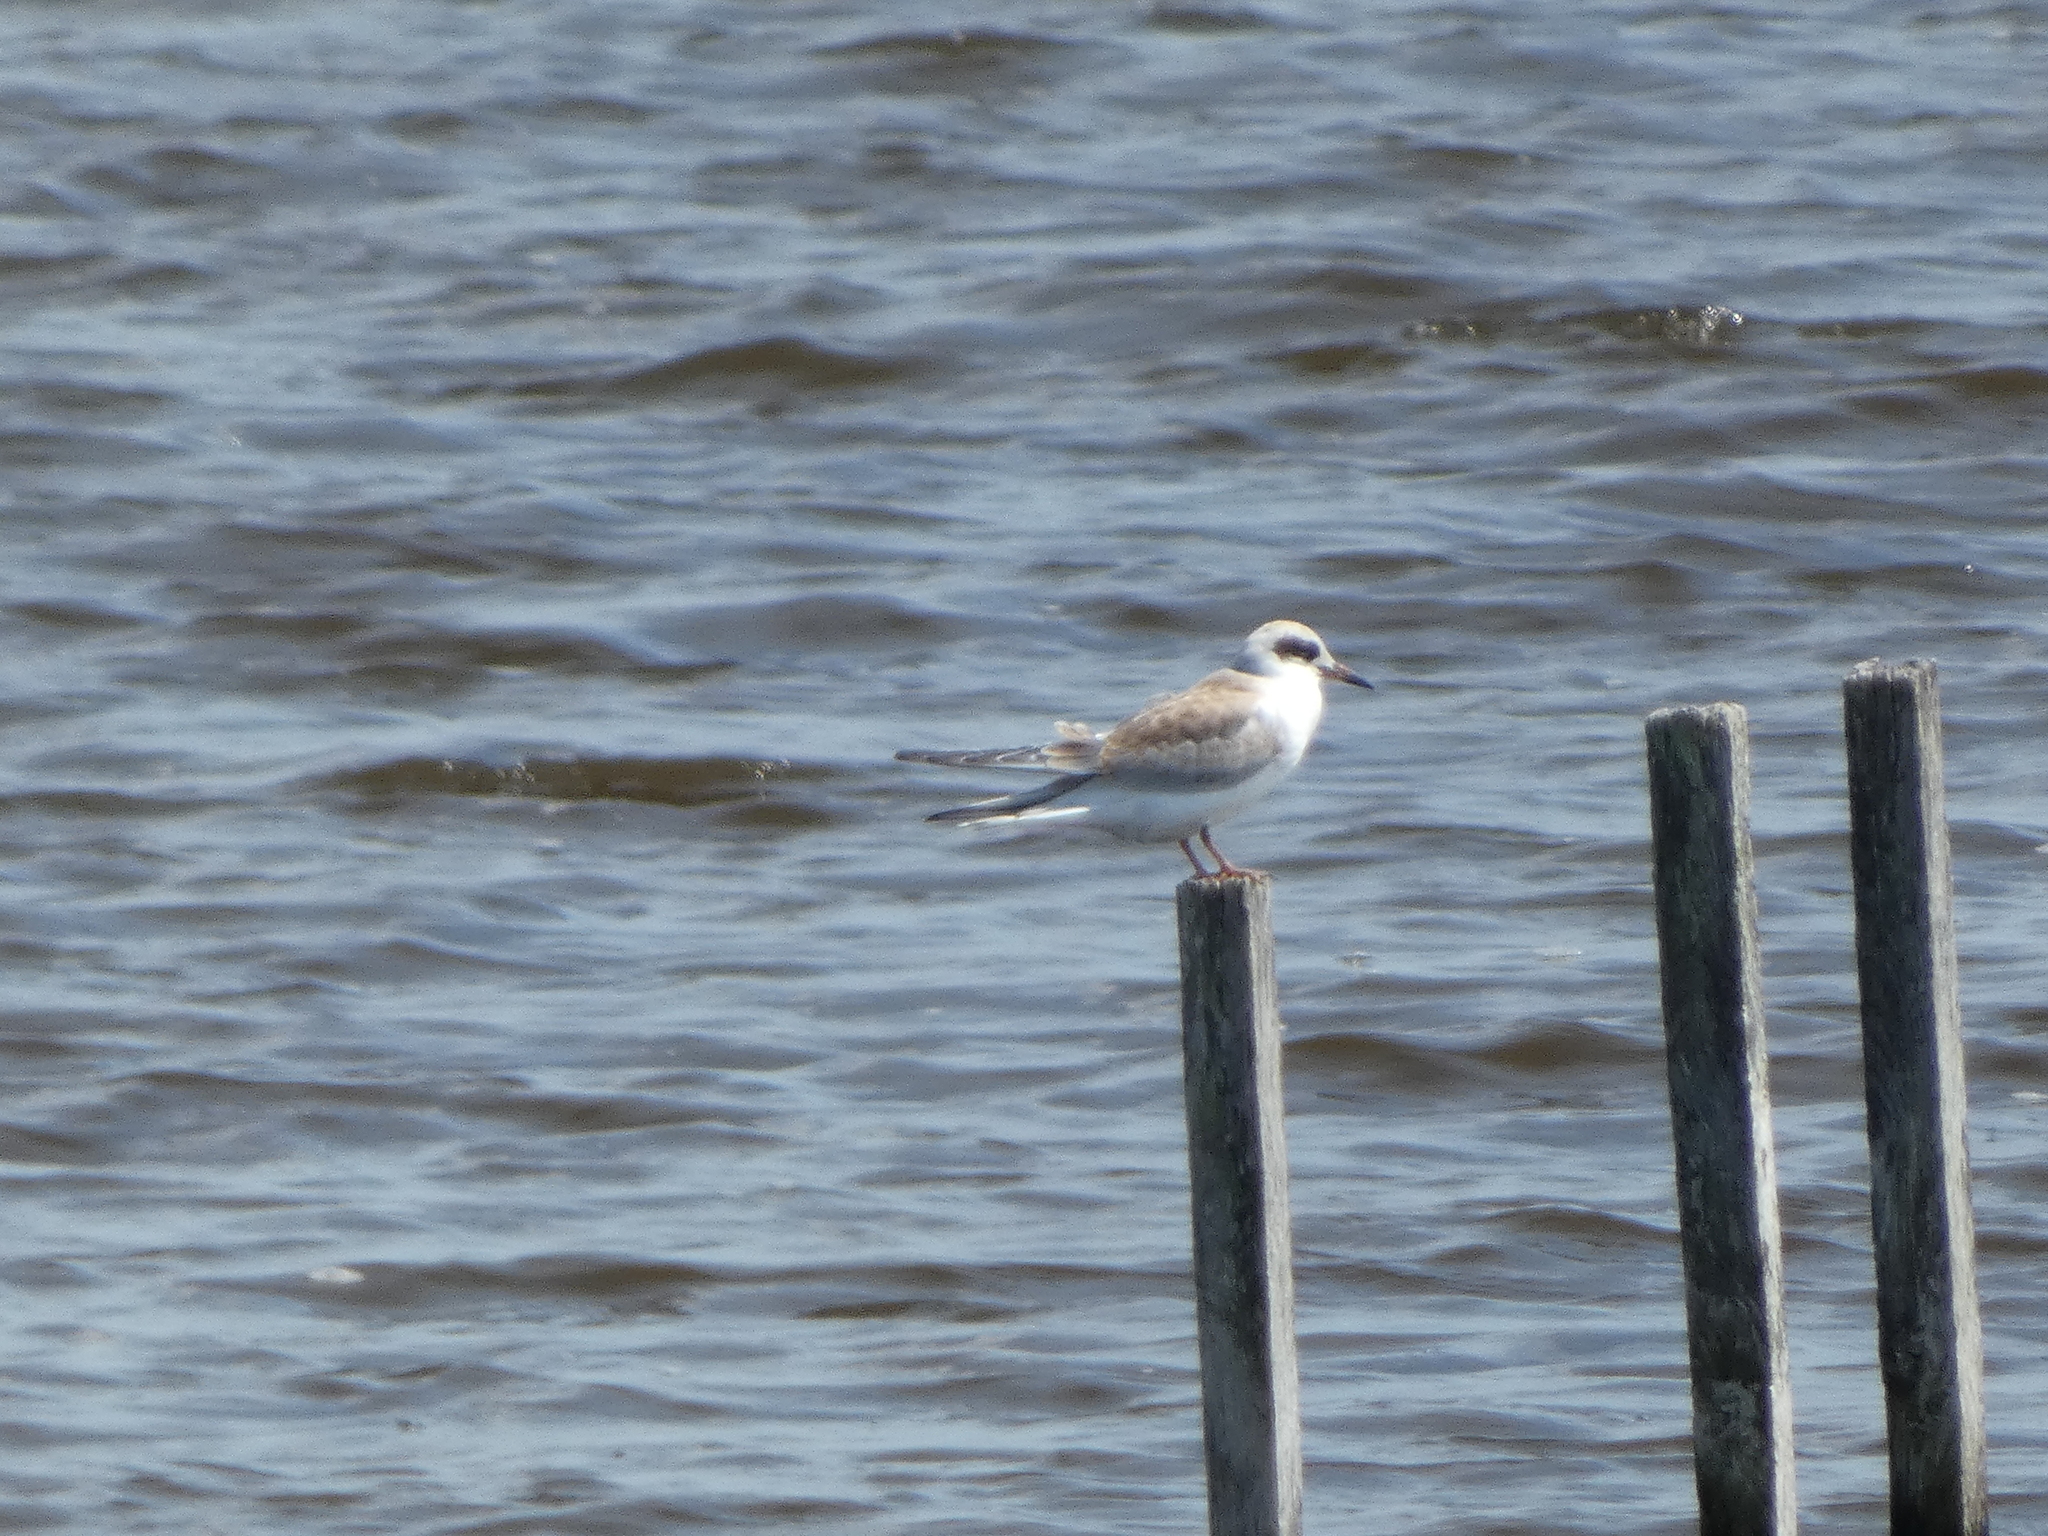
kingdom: Animalia
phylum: Chordata
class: Aves
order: Charadriiformes
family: Laridae
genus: Sterna
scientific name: Sterna forsteri
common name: Forster's tern
